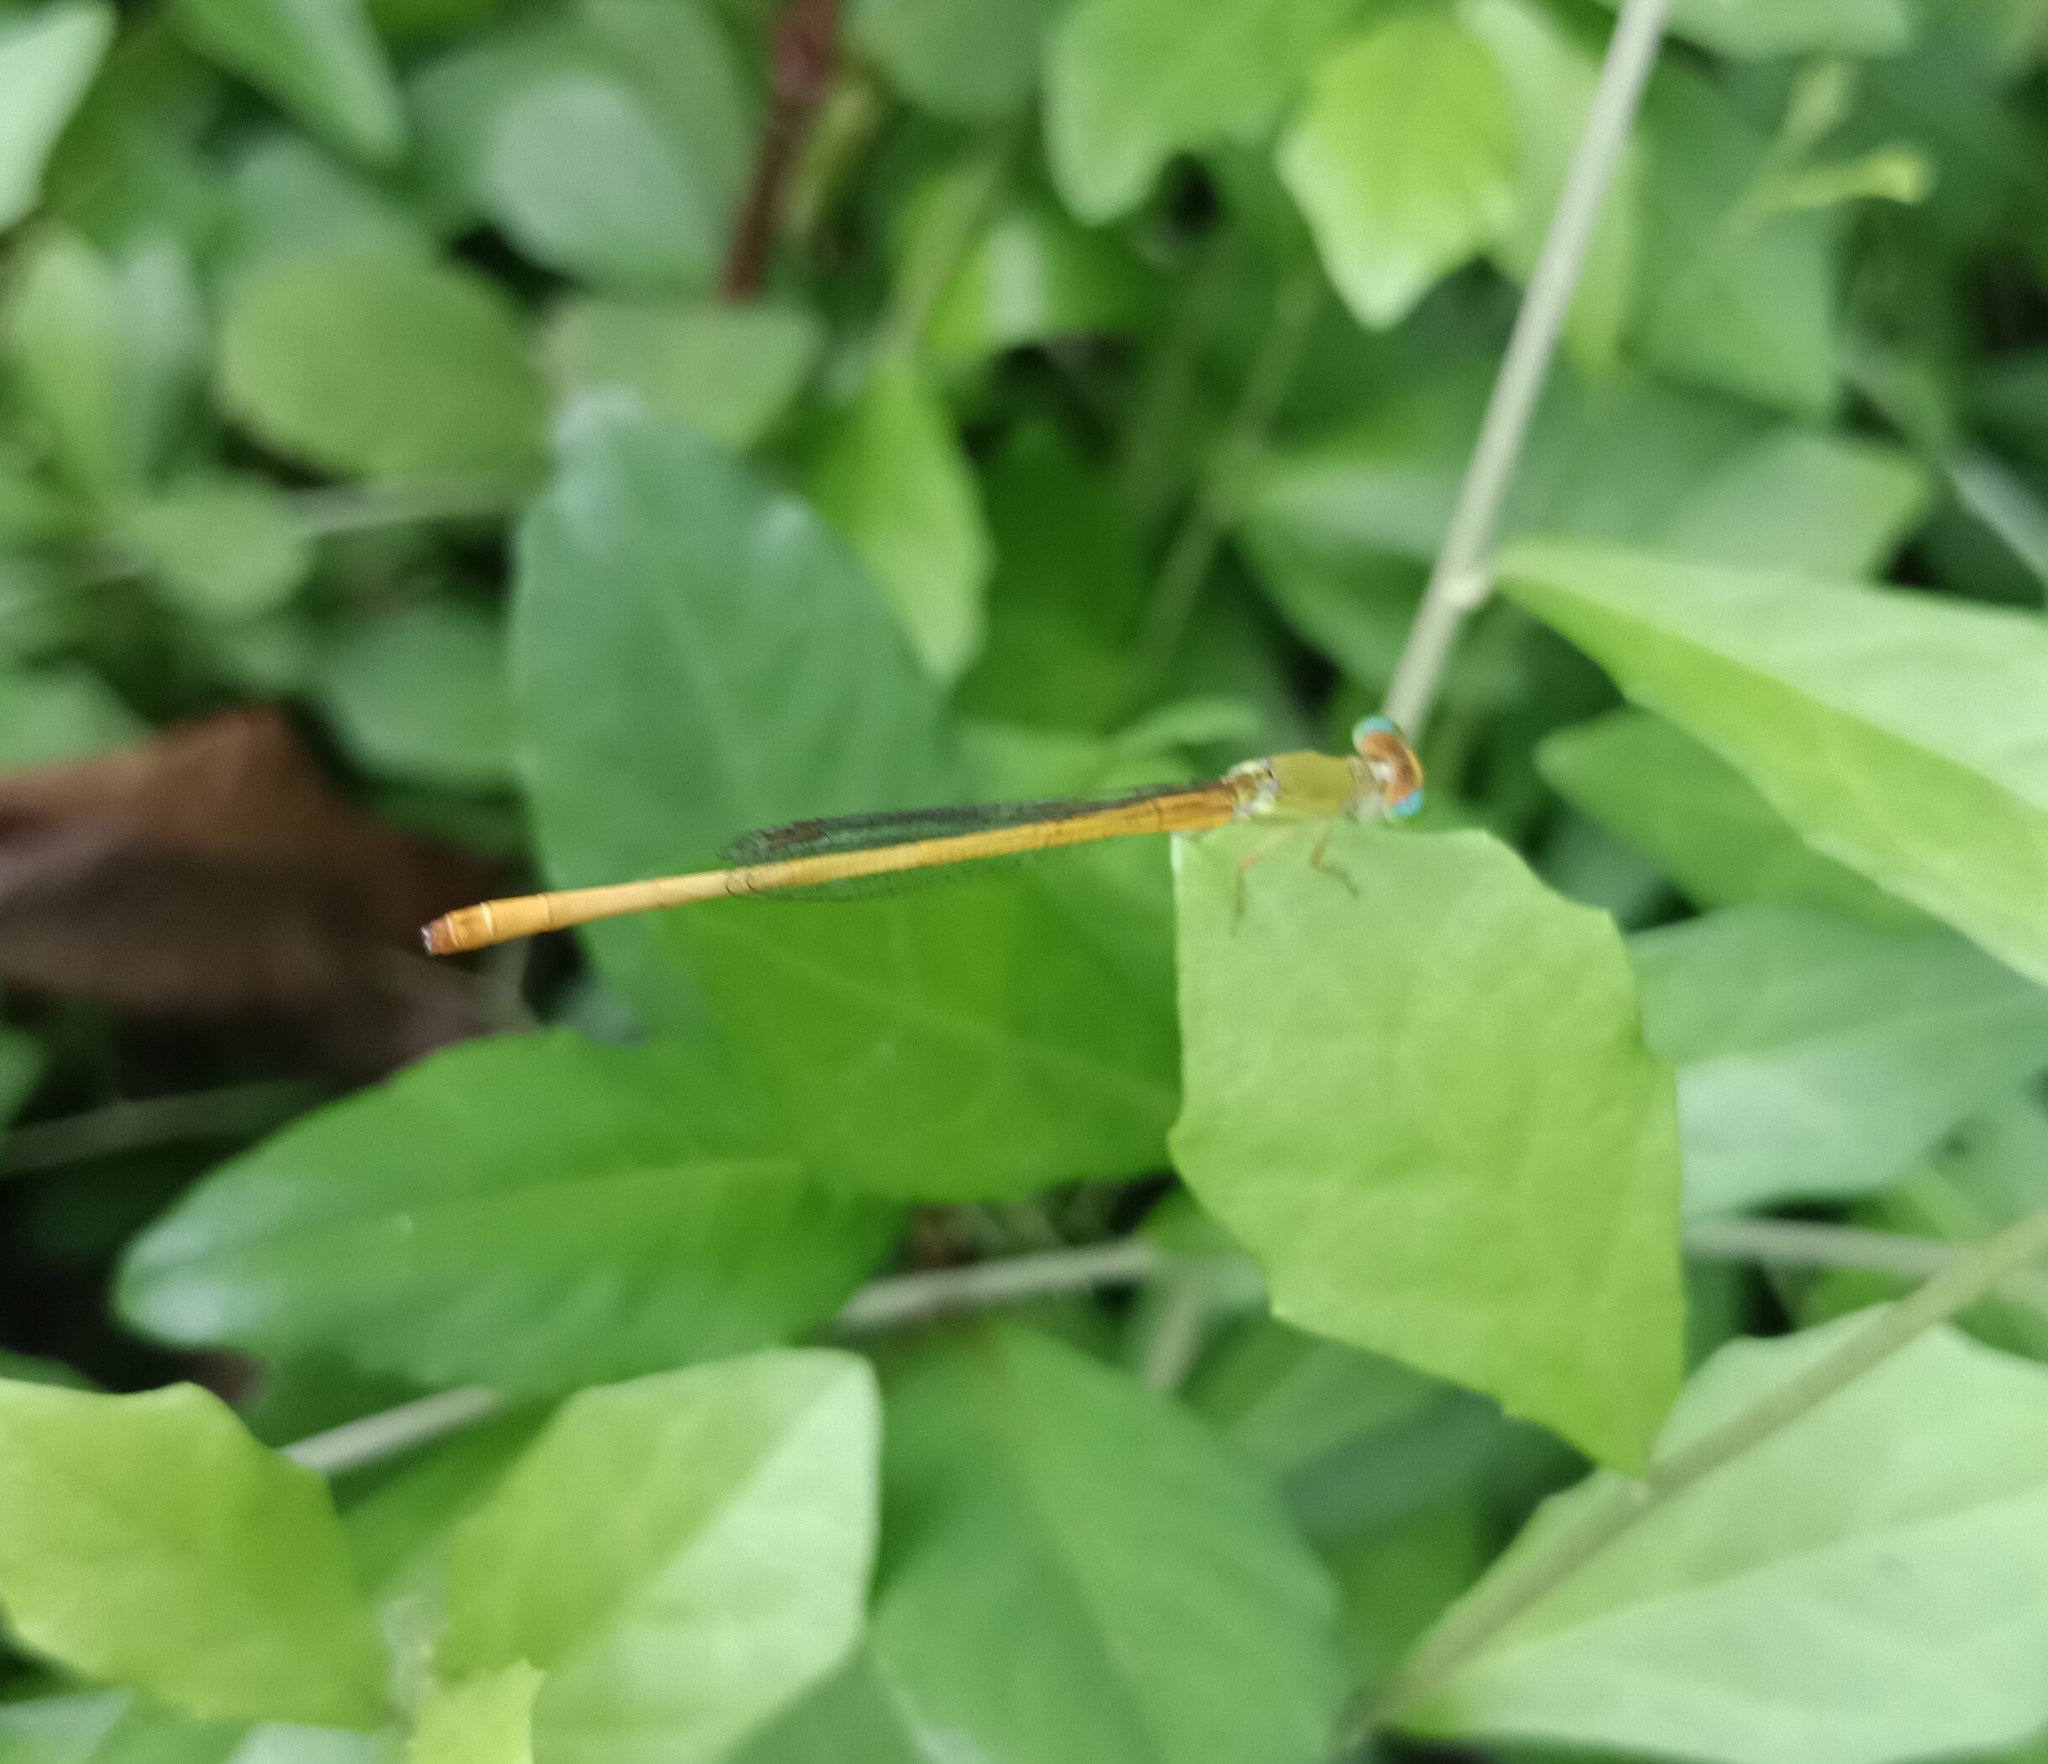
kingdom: Animalia
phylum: Arthropoda
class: Insecta
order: Odonata
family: Coenagrionidae
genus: Ceriagrion
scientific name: Ceriagrion coromandelianum
